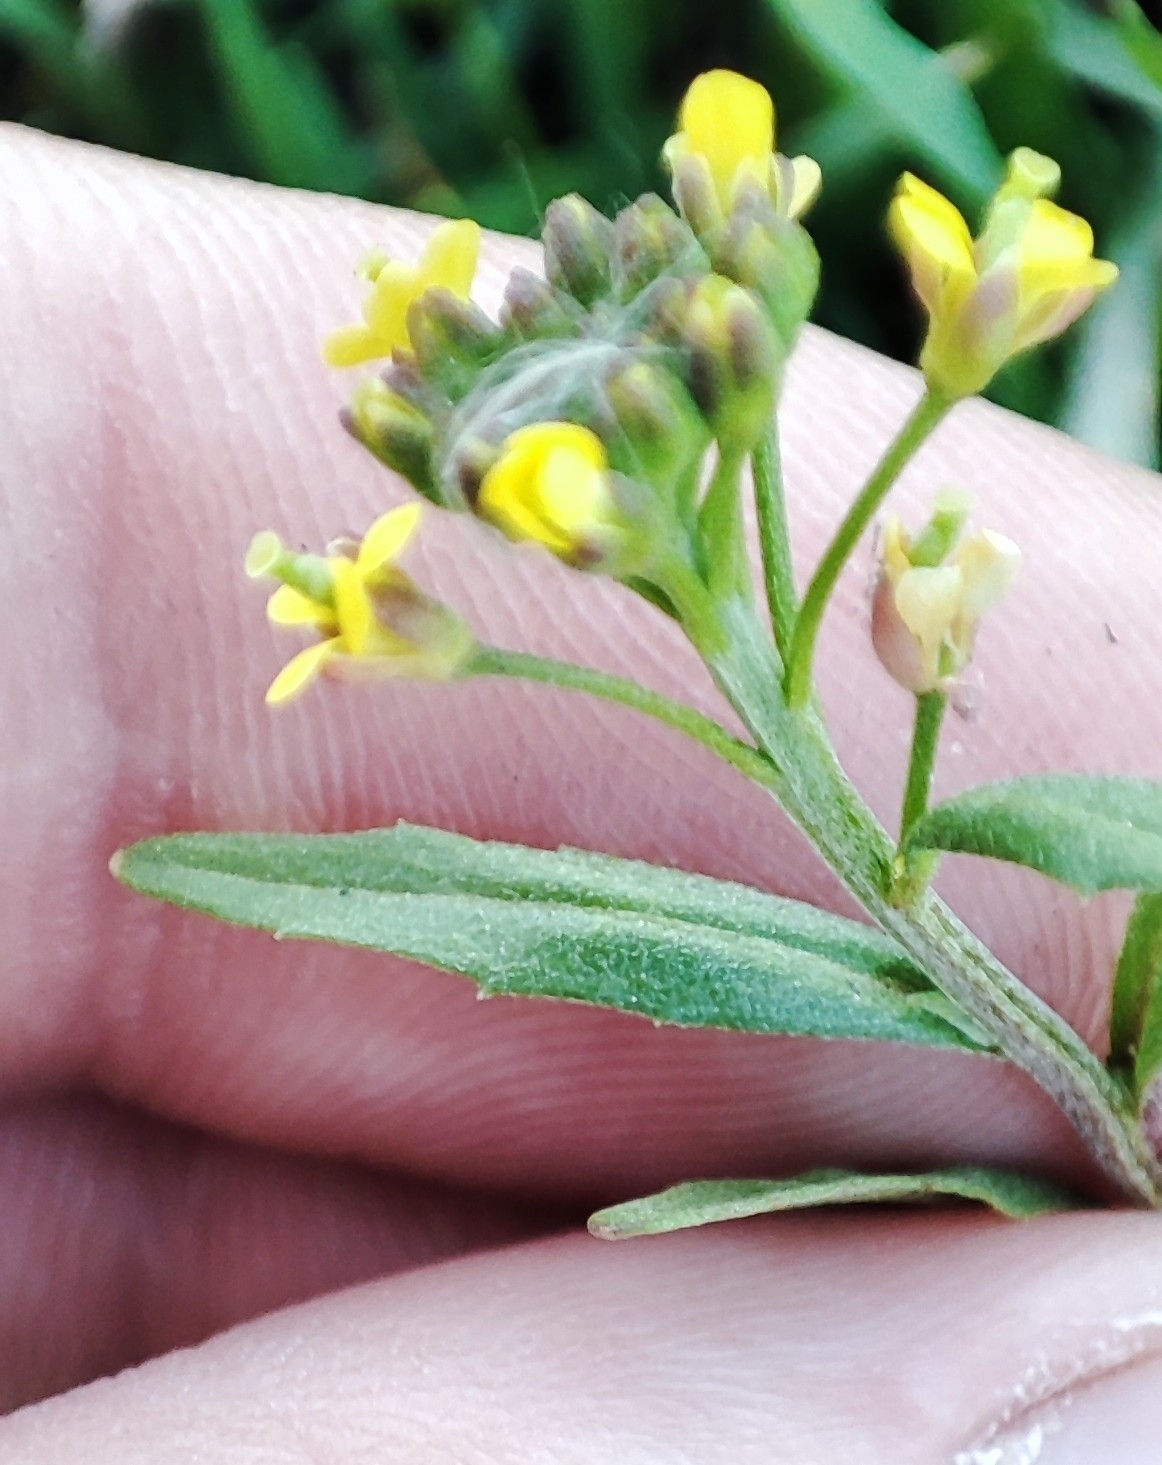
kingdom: Plantae
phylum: Tracheophyta
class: Magnoliopsida
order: Brassicales
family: Brassicaceae
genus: Erysimum
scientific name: Erysimum cheiranthoides
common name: Treacle mustard
